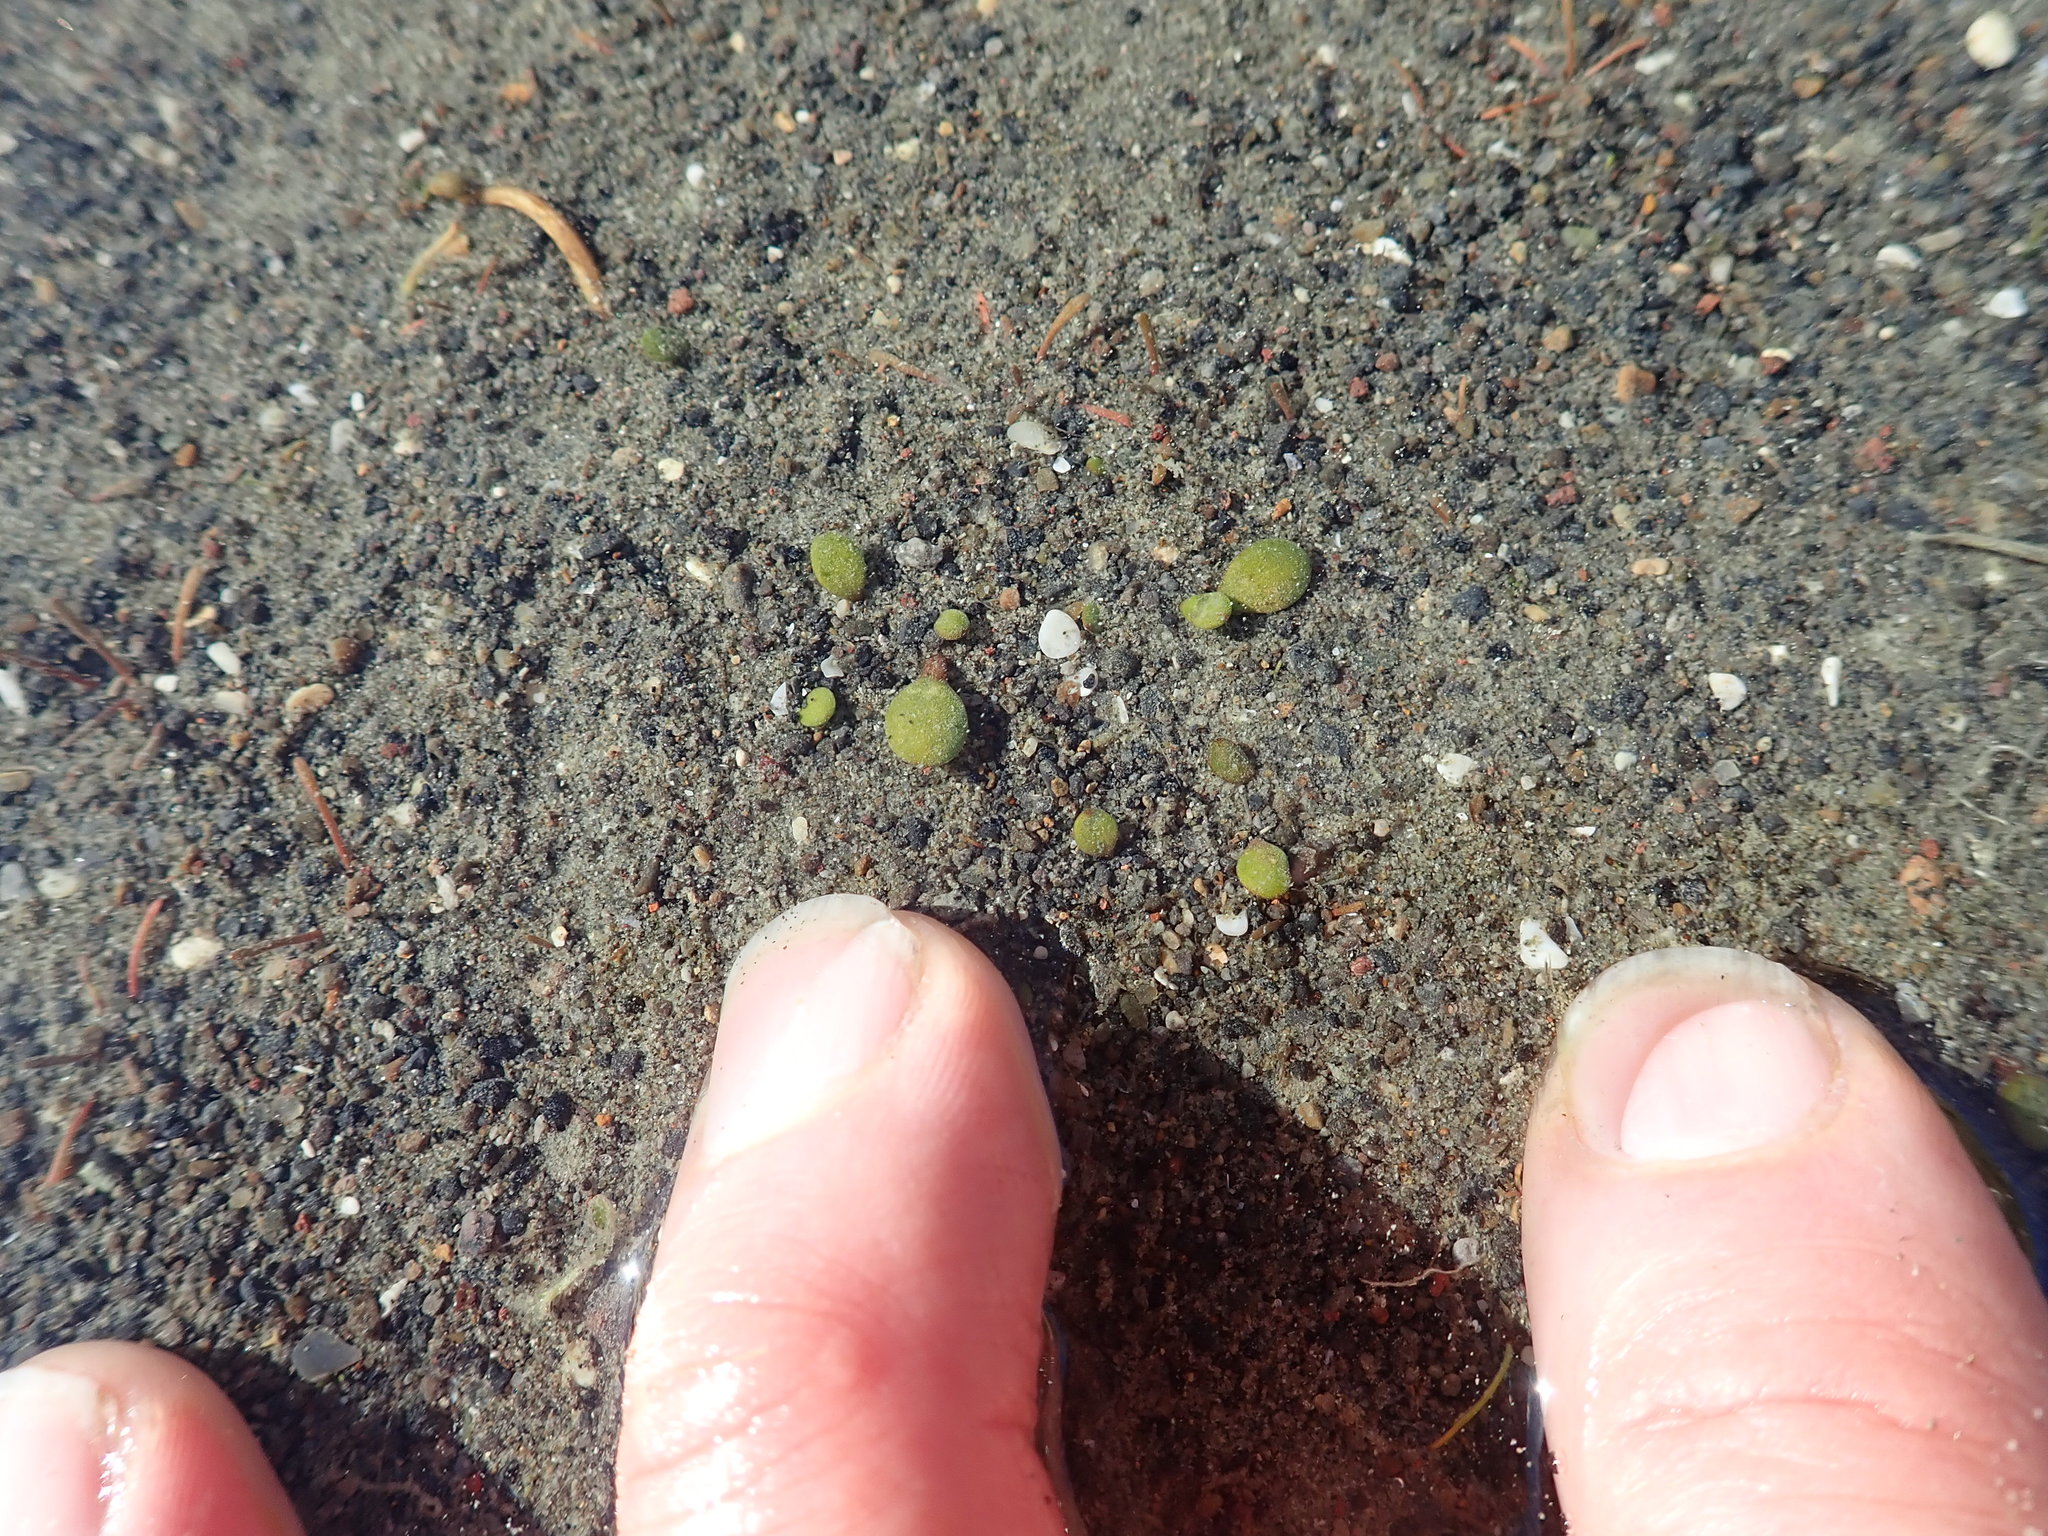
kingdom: Plantae
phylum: Tracheophyta
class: Magnoliopsida
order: Asterales
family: Goodeniaceae
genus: Goodenia
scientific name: Goodenia heenanii
